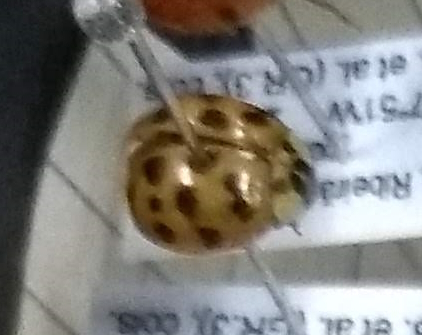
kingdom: Animalia
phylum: Arthropoda
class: Insecta
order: Coleoptera
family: Coccinellidae
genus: Harmonia
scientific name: Harmonia axyridis
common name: Harlequin ladybird
